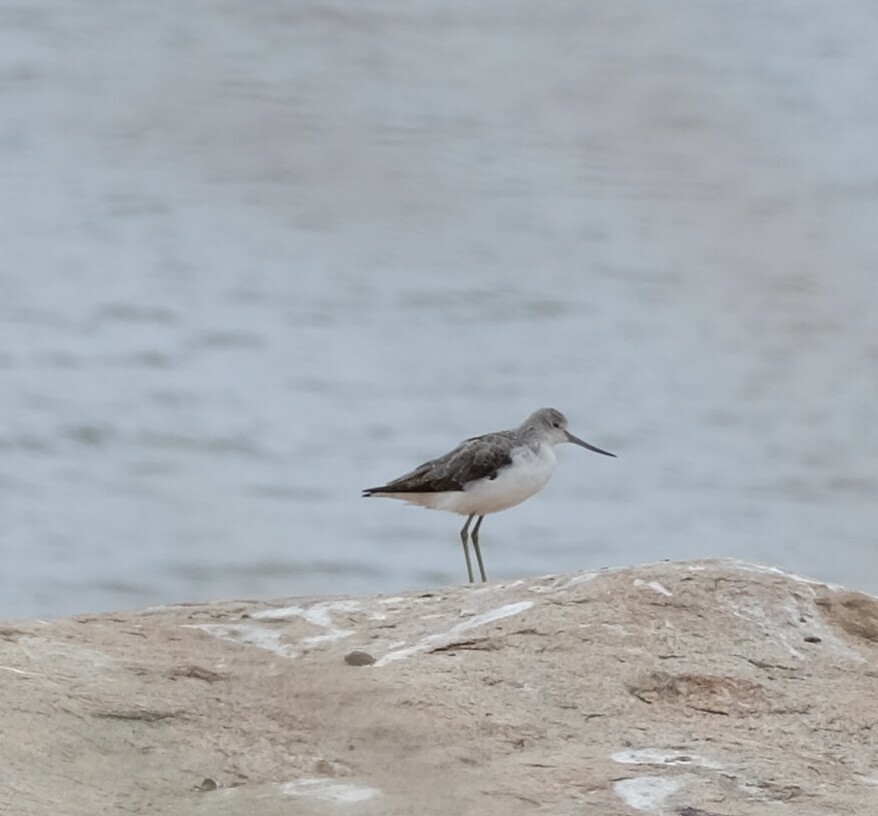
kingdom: Animalia
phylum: Chordata
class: Aves
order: Charadriiformes
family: Scolopacidae
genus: Tringa
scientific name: Tringa nebularia
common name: Common greenshank
